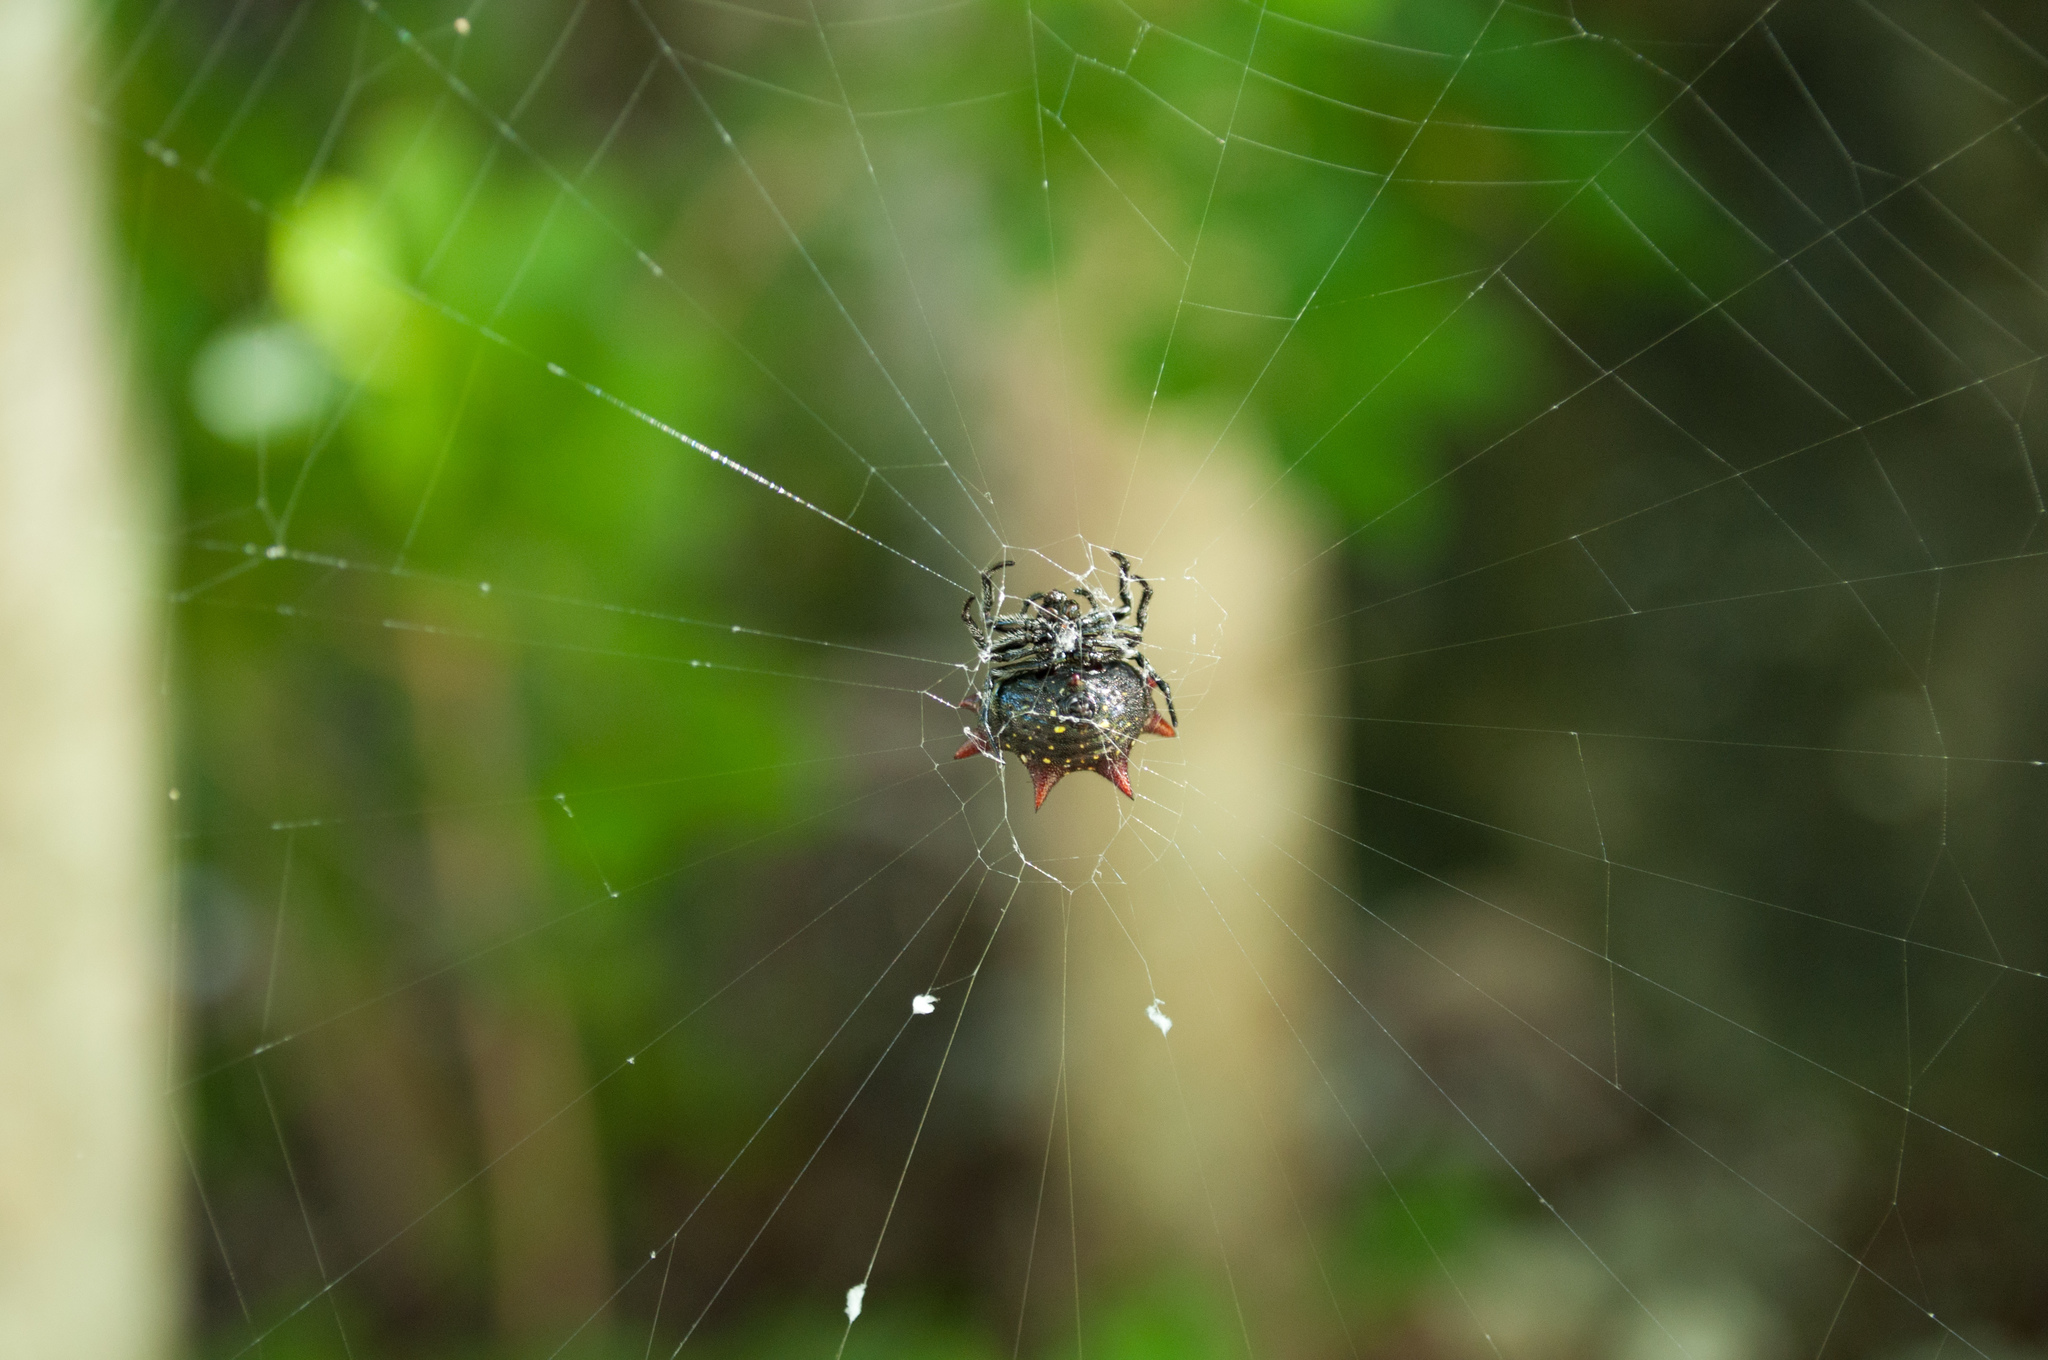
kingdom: Animalia
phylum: Arthropoda
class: Arachnida
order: Araneae
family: Araneidae
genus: Gasteracantha
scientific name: Gasteracantha cancriformis
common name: Orb weavers
